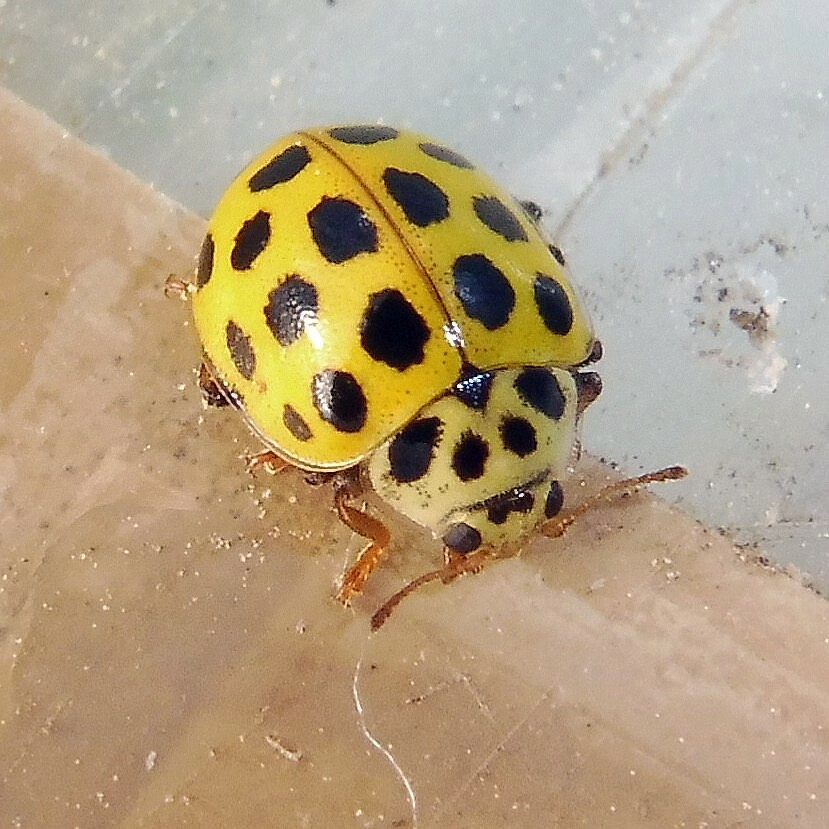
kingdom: Animalia
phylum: Arthropoda
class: Insecta
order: Coleoptera
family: Coccinellidae
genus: Psyllobora
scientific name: Psyllobora vigintiduopunctata
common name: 22-spot ladybird
